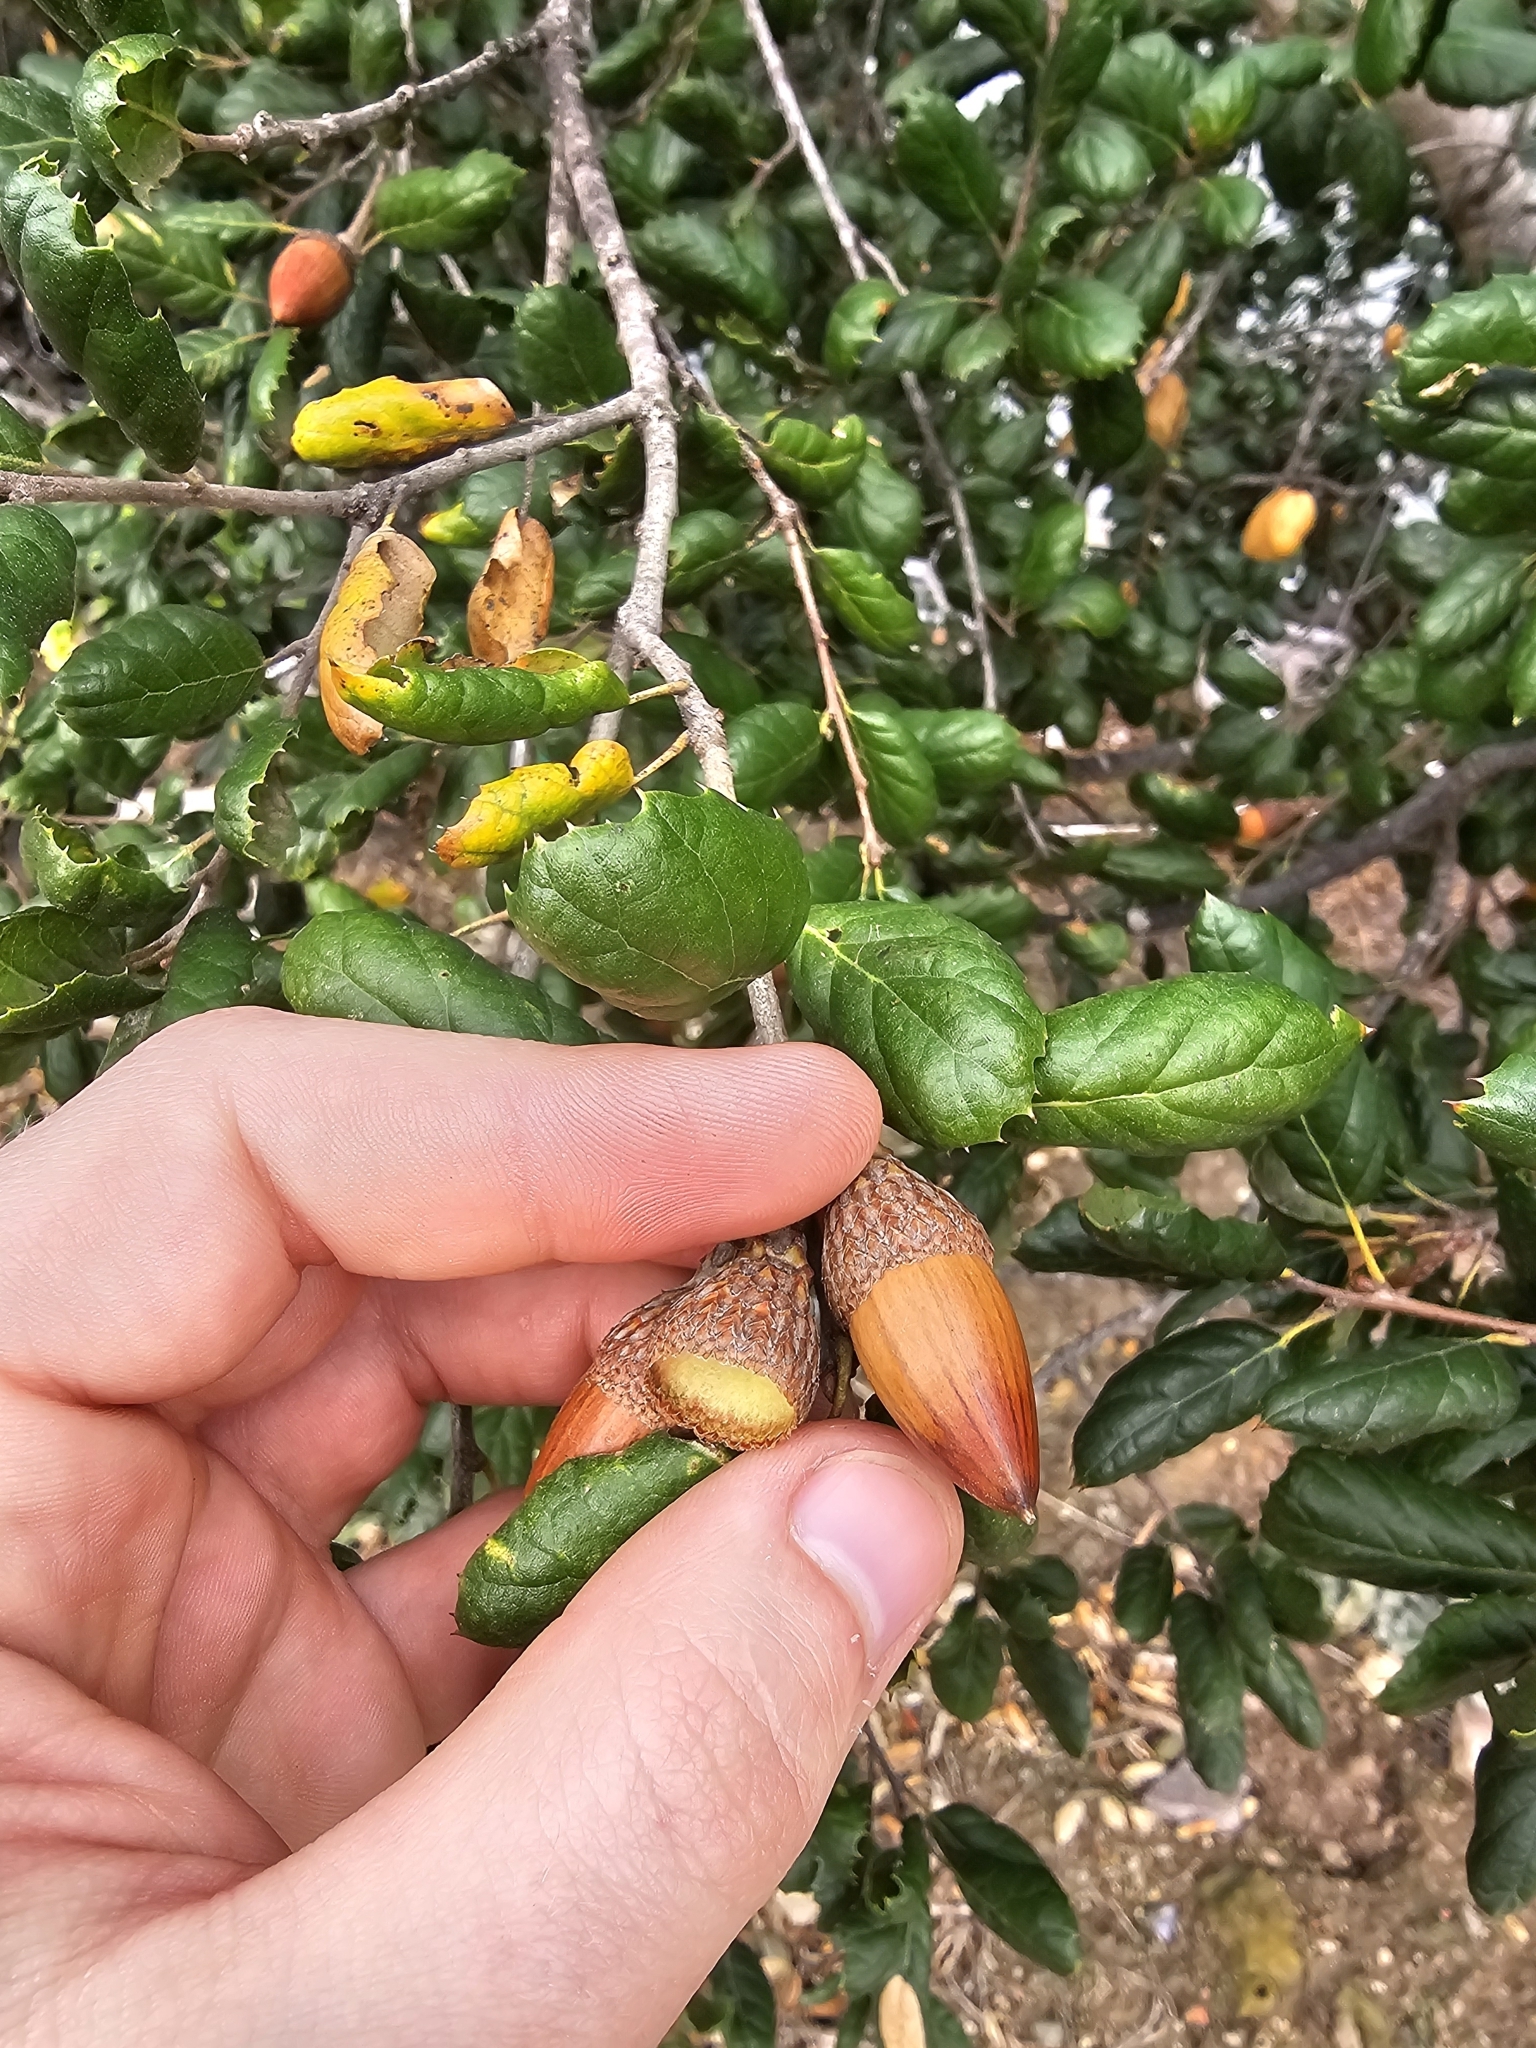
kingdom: Plantae
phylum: Tracheophyta
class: Magnoliopsida
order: Fagales
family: Fagaceae
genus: Quercus
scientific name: Quercus agrifolia
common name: California live oak
